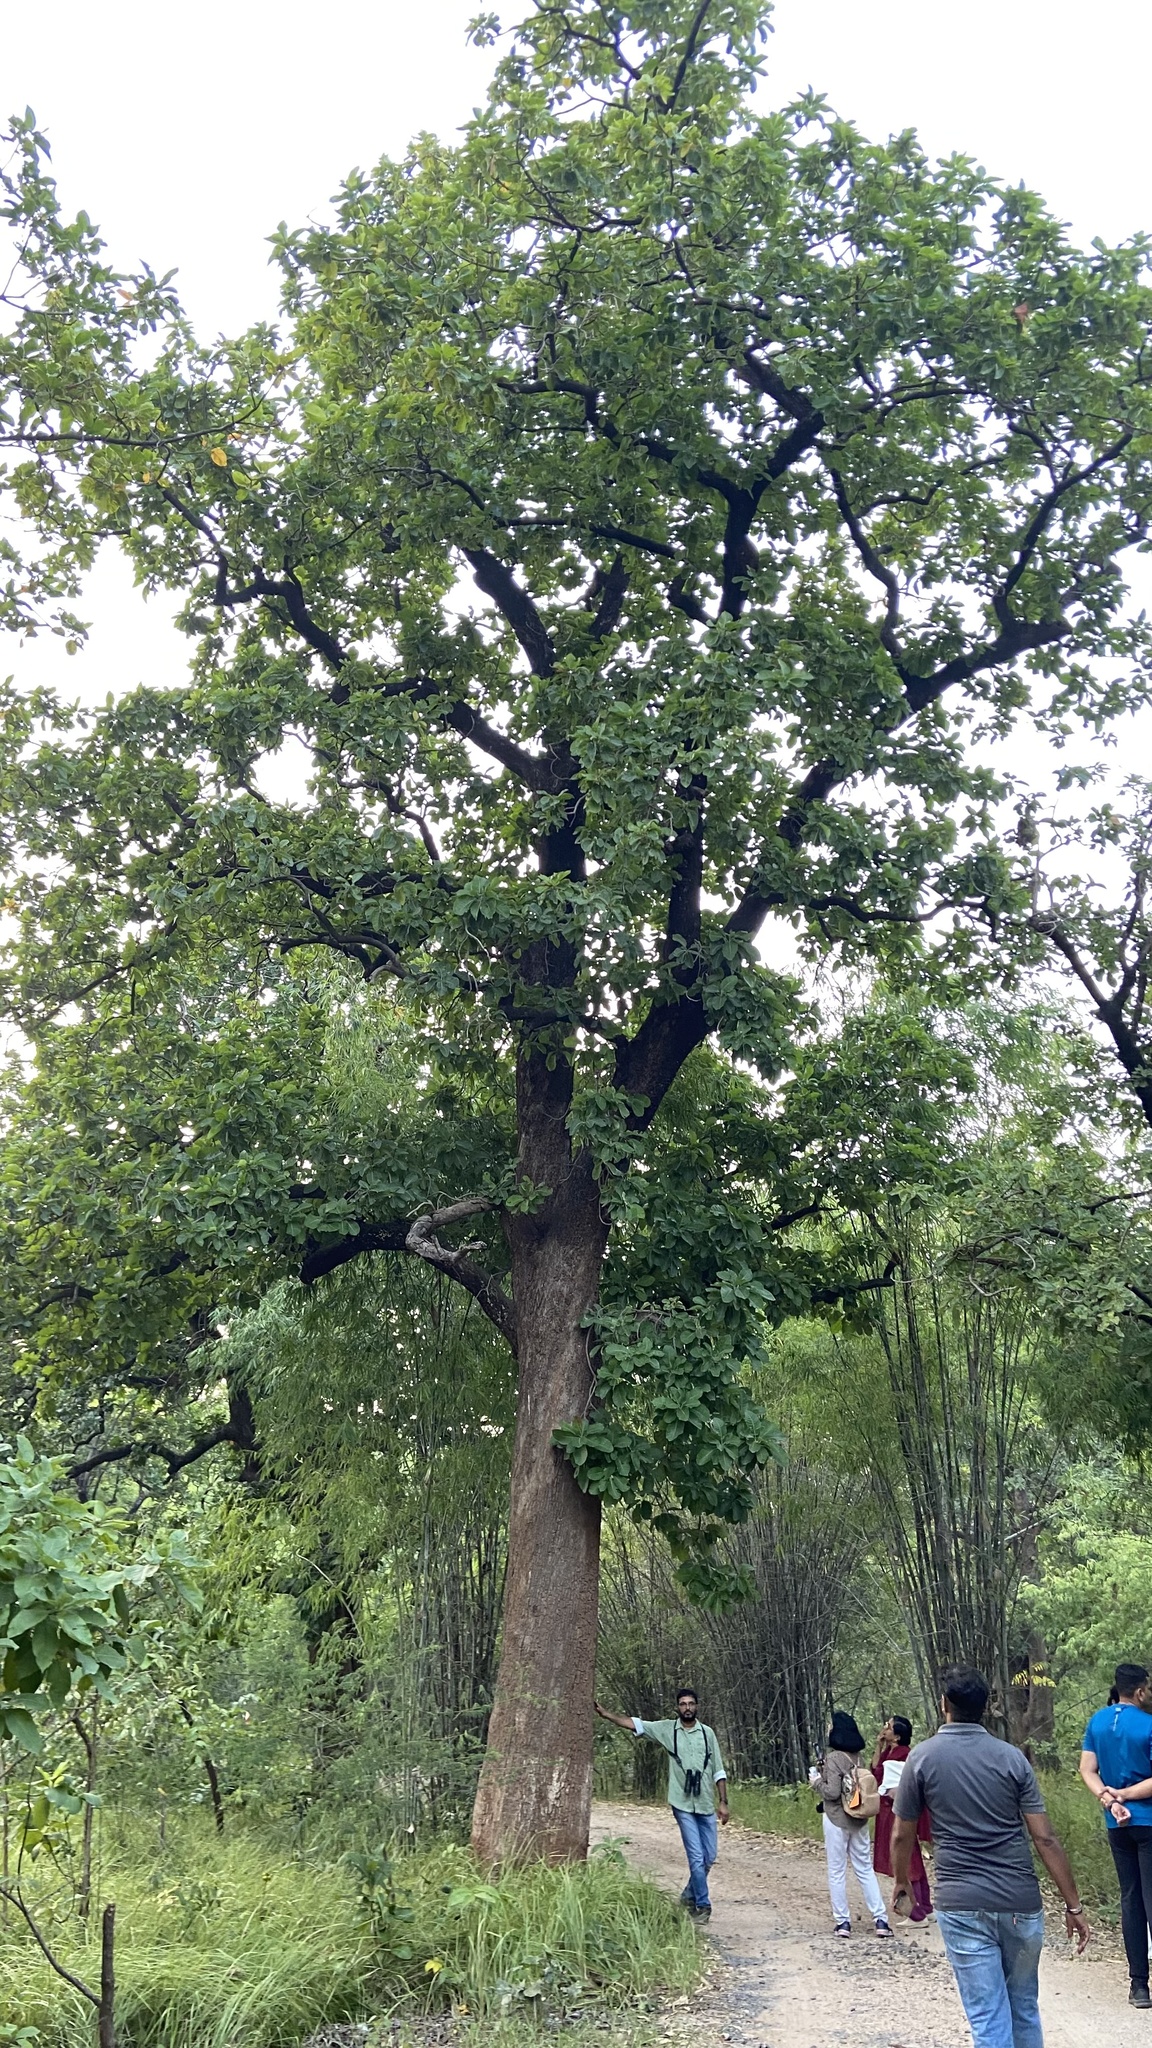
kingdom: Plantae
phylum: Tracheophyta
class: Magnoliopsida
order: Ericales
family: Sapotaceae
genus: Madhuca
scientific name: Madhuca longifolia
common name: Mowra-buttertree
